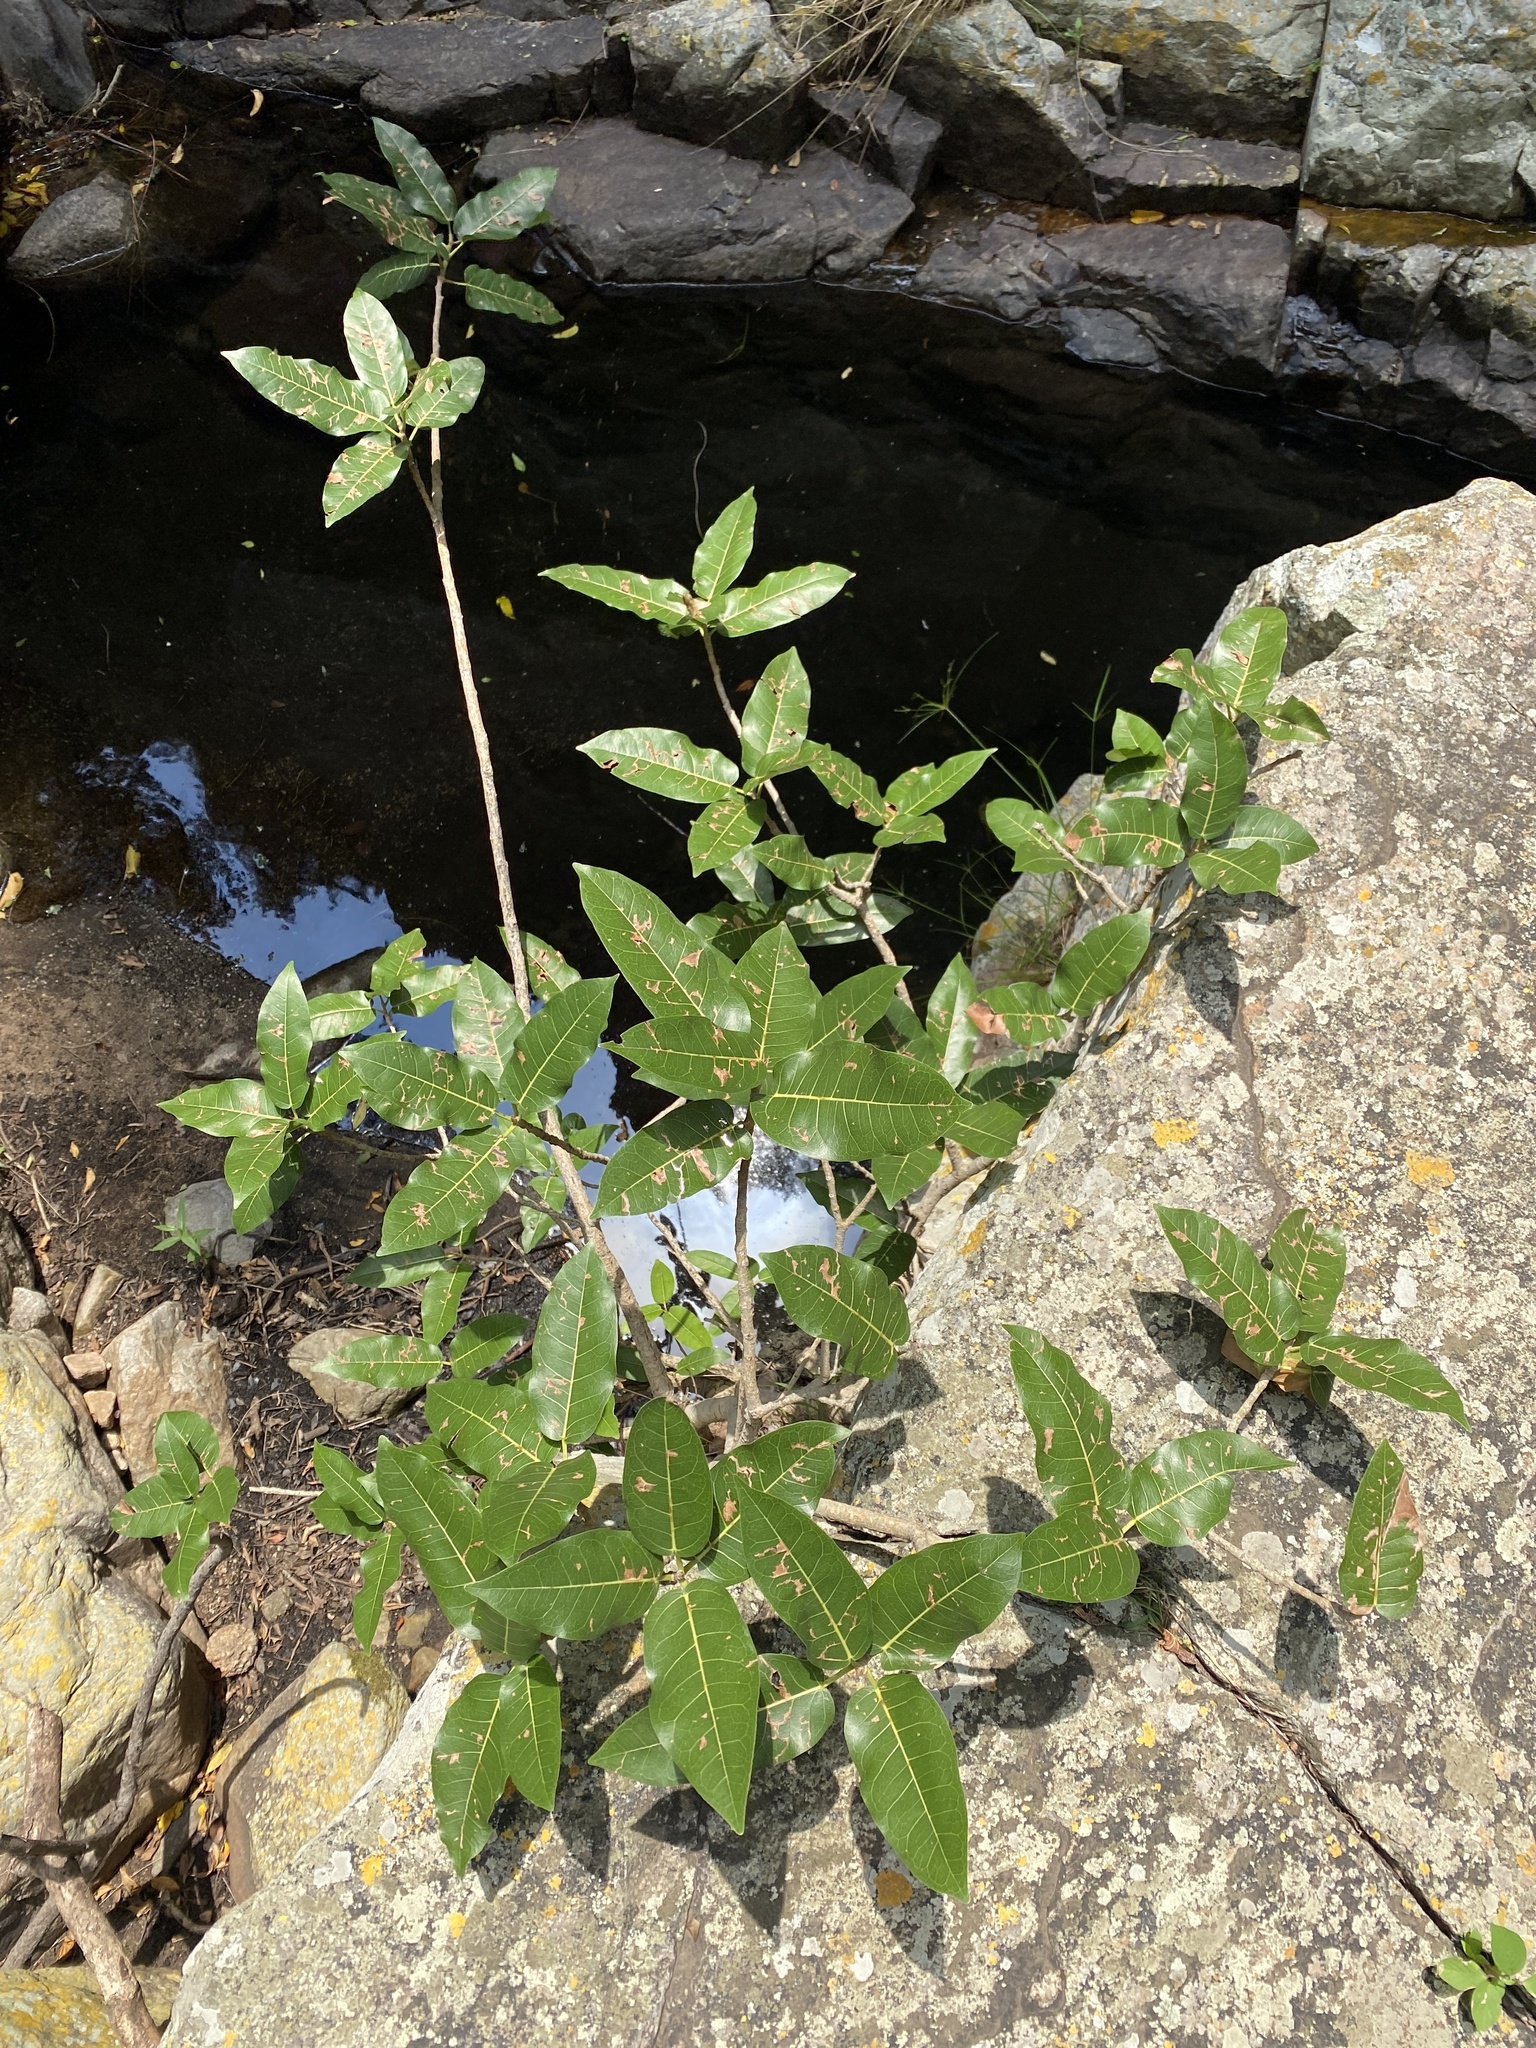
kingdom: Plantae
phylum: Tracheophyta
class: Magnoliopsida
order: Rosales
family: Moraceae
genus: Ficus
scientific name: Ficus ingens
